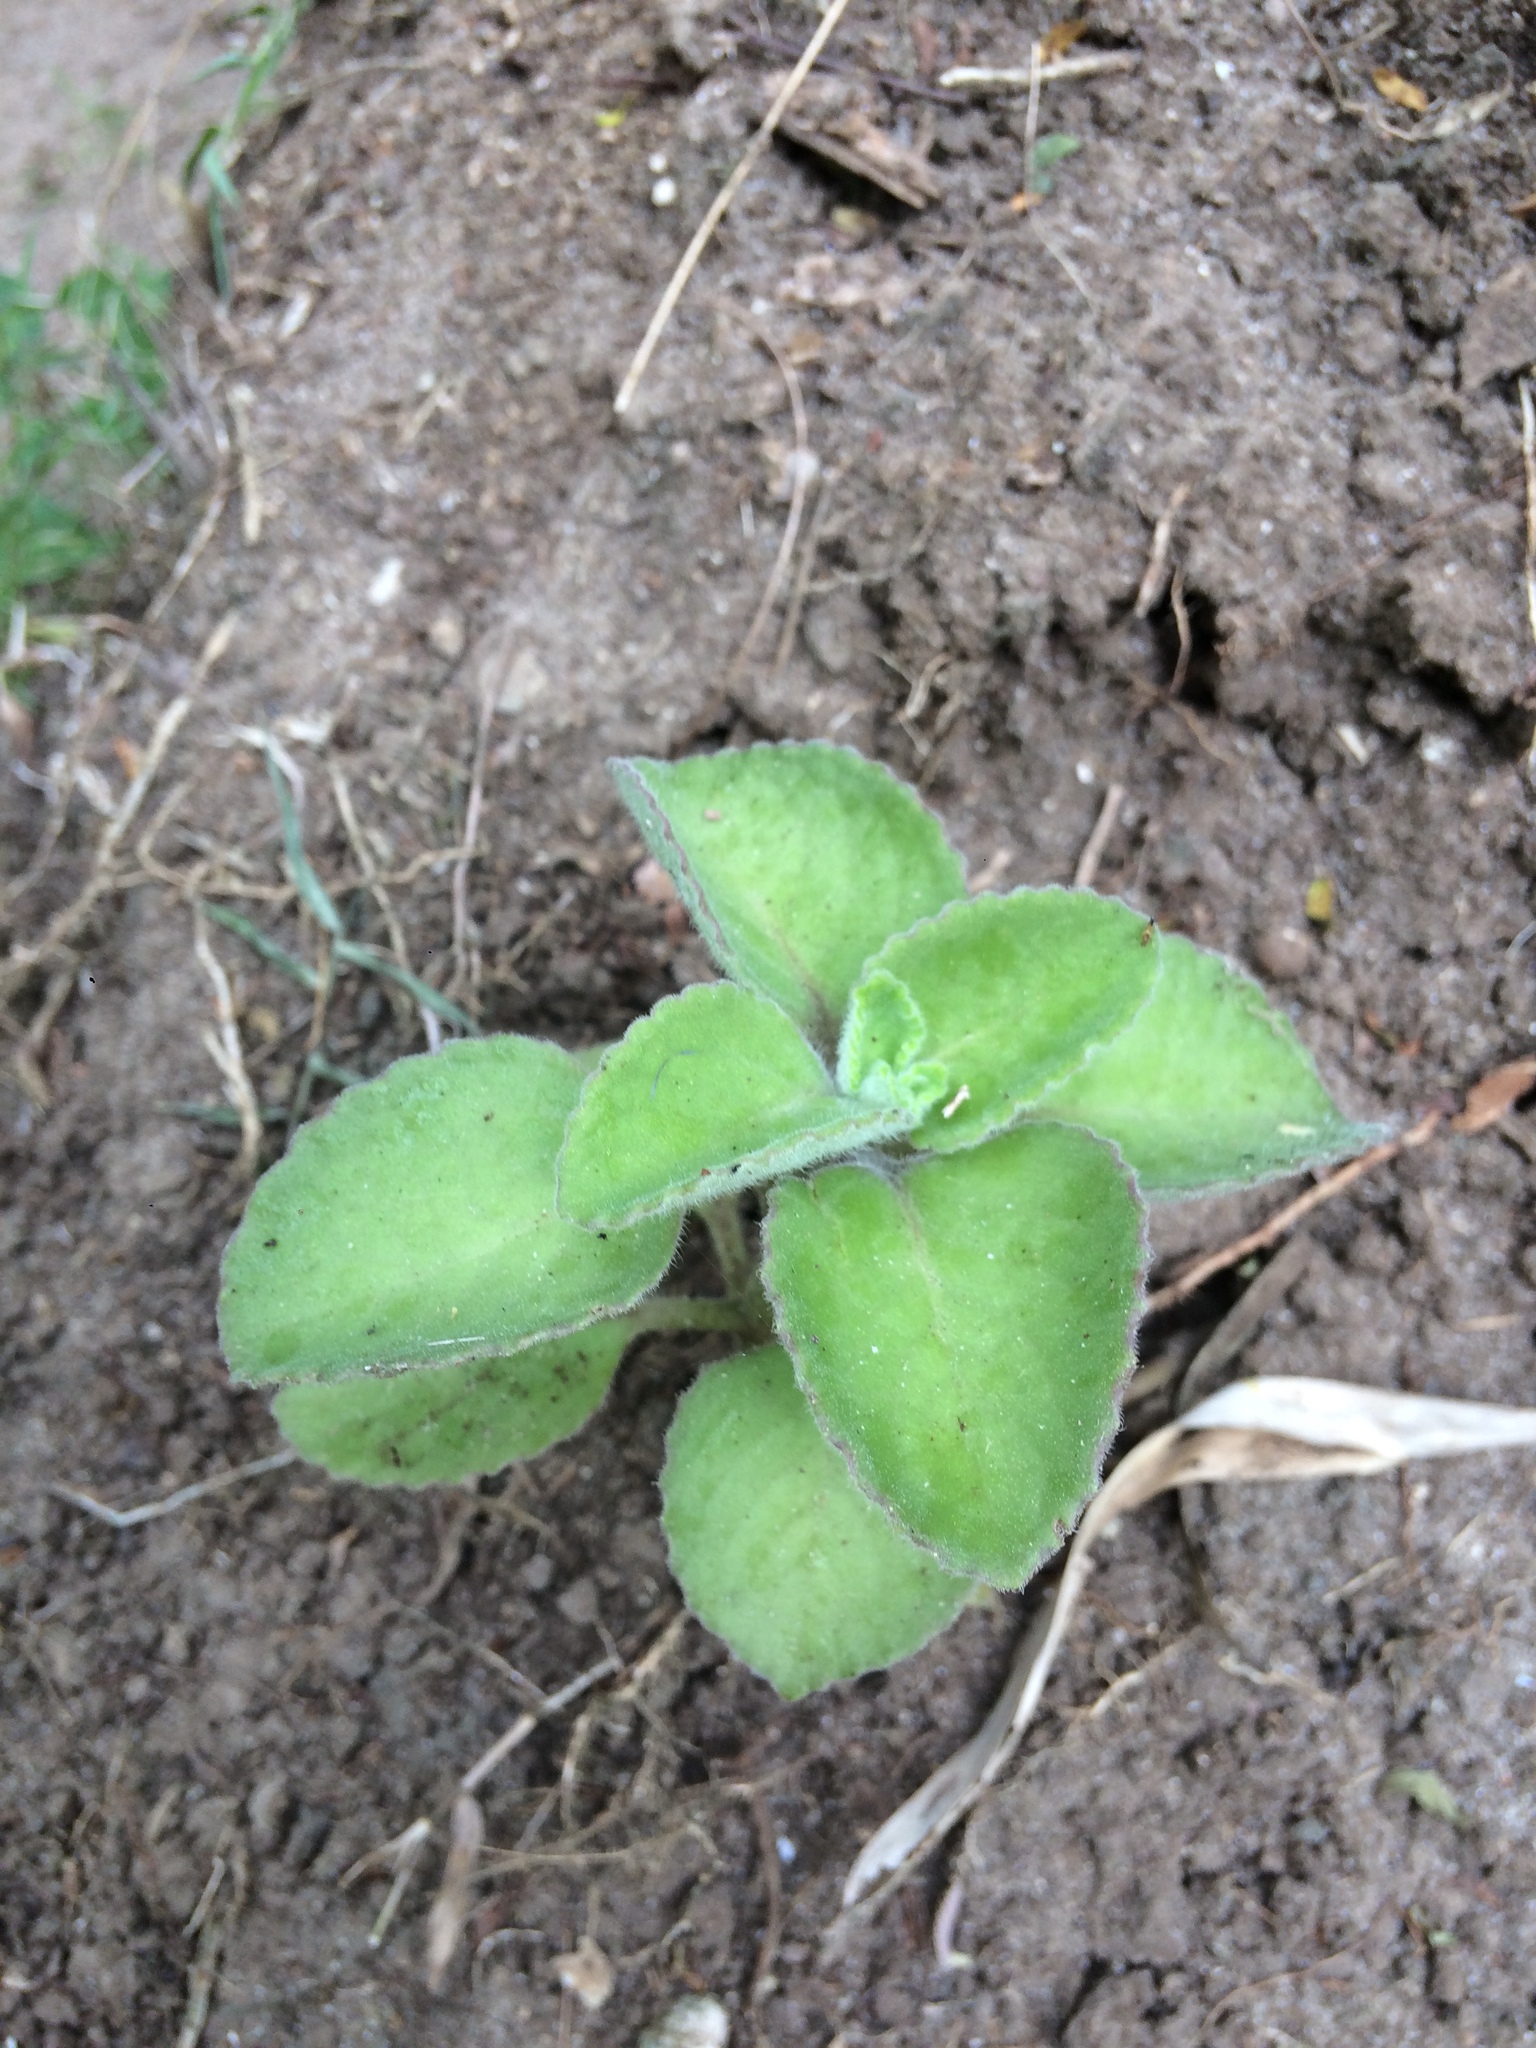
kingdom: Plantae
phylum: Tracheophyta
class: Magnoliopsida
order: Lamiales
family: Lamiaceae
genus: Coleus
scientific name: Coleus amboinicus
